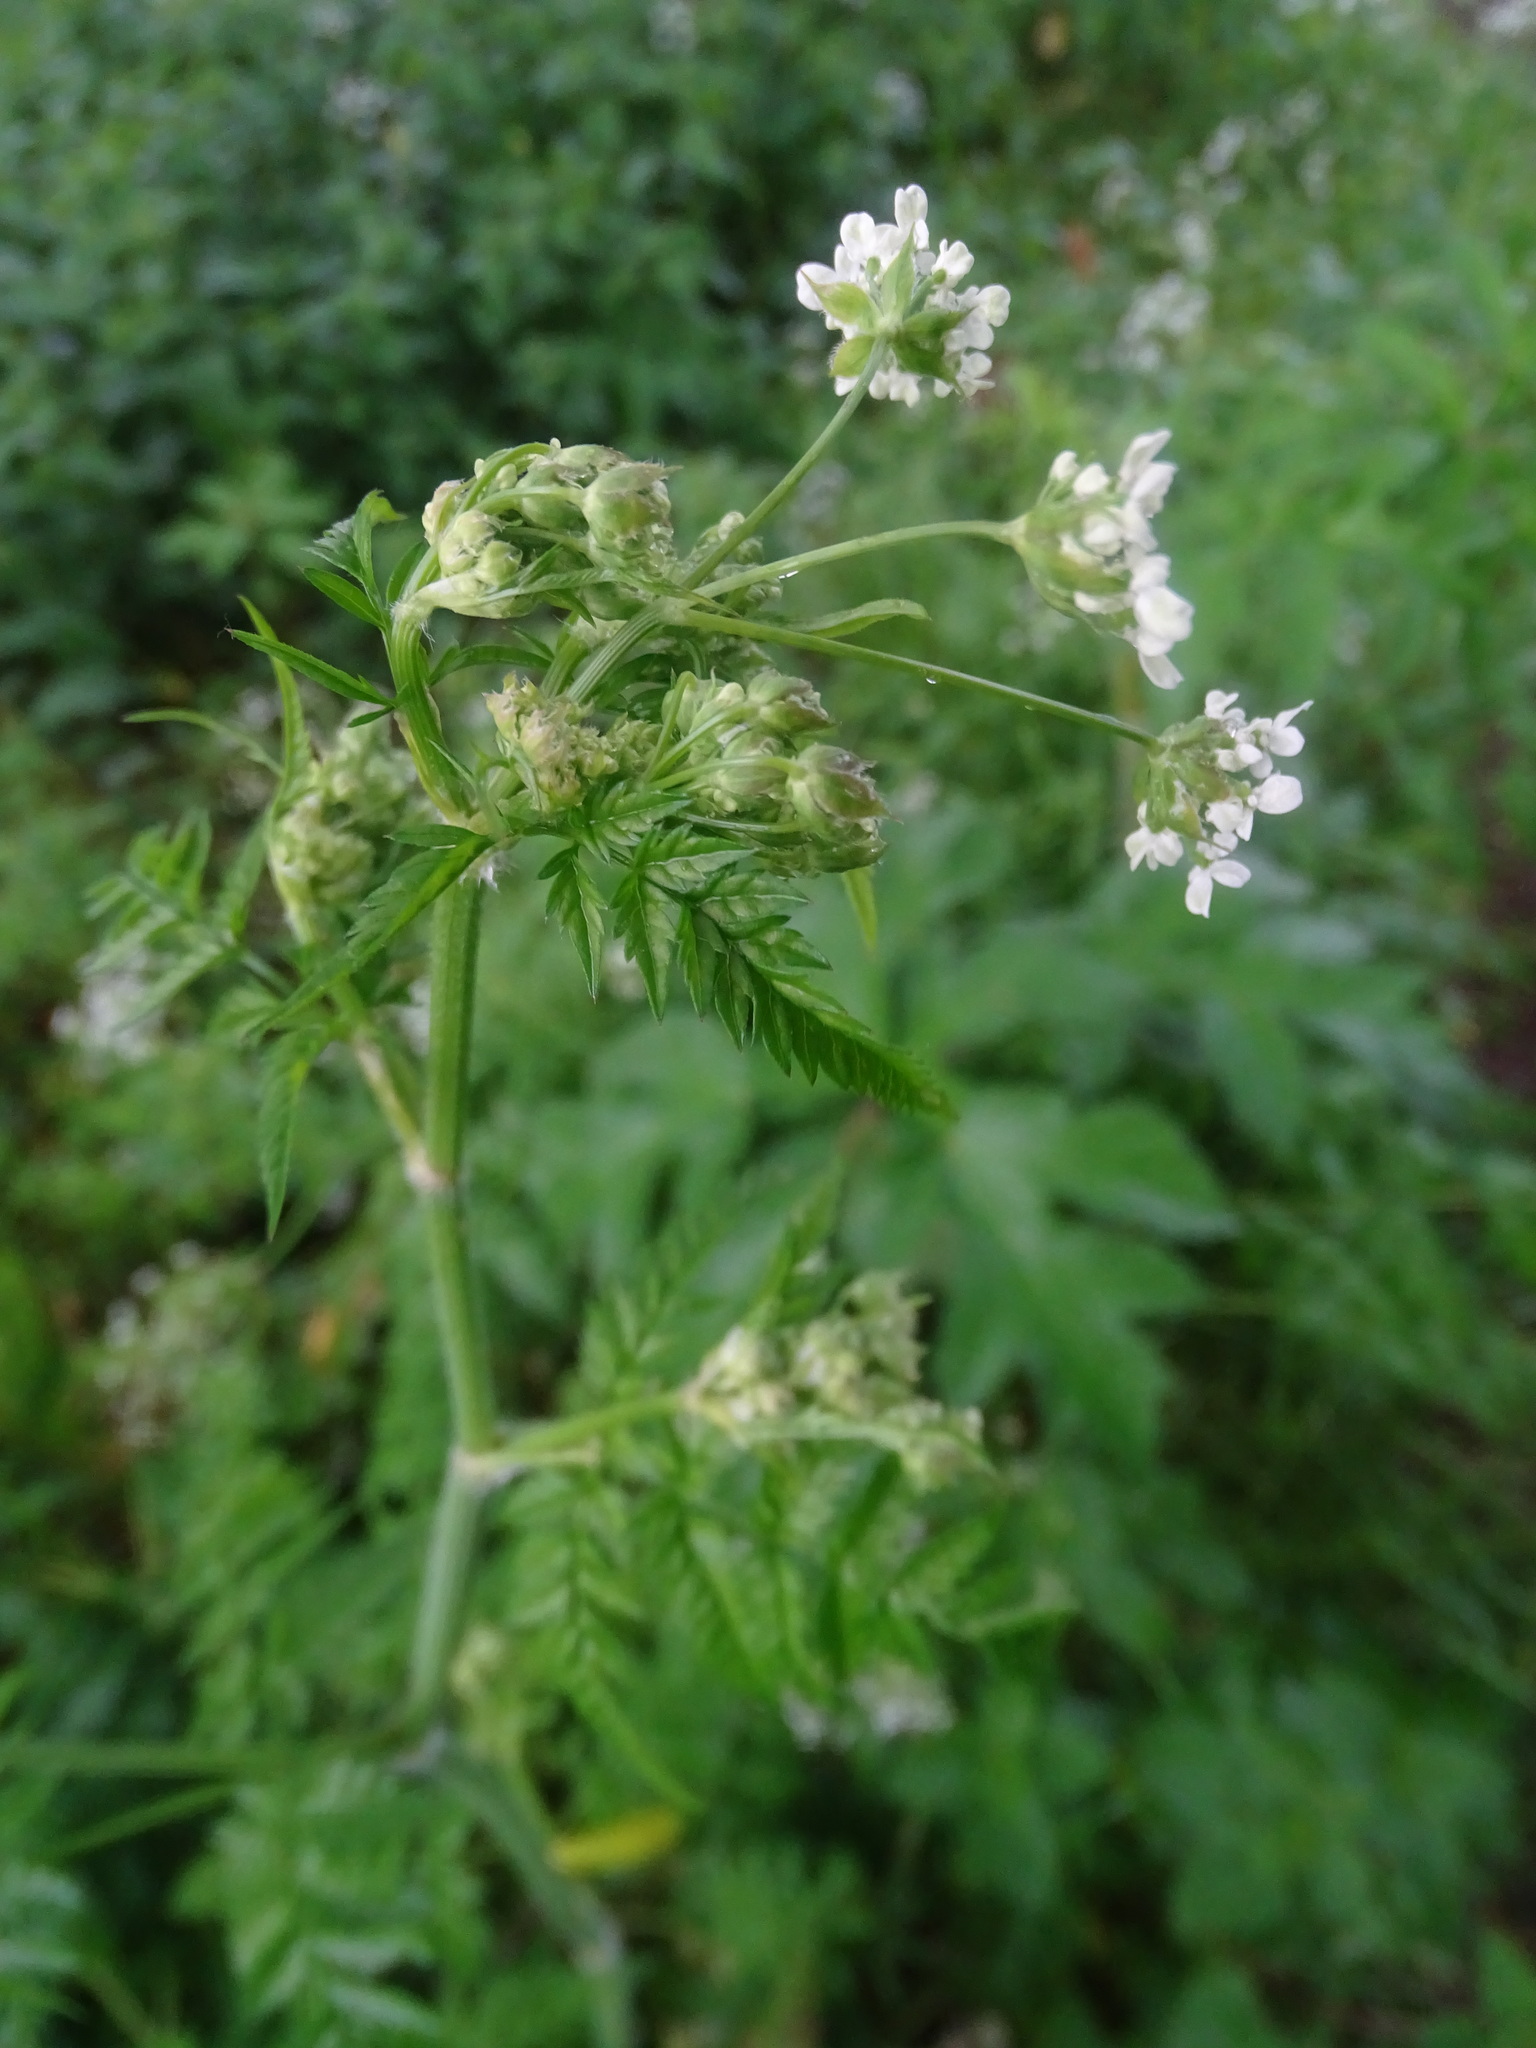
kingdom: Plantae
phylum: Tracheophyta
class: Magnoliopsida
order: Apiales
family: Apiaceae
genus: Anthriscus
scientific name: Anthriscus sylvestris
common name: Cow parsley
